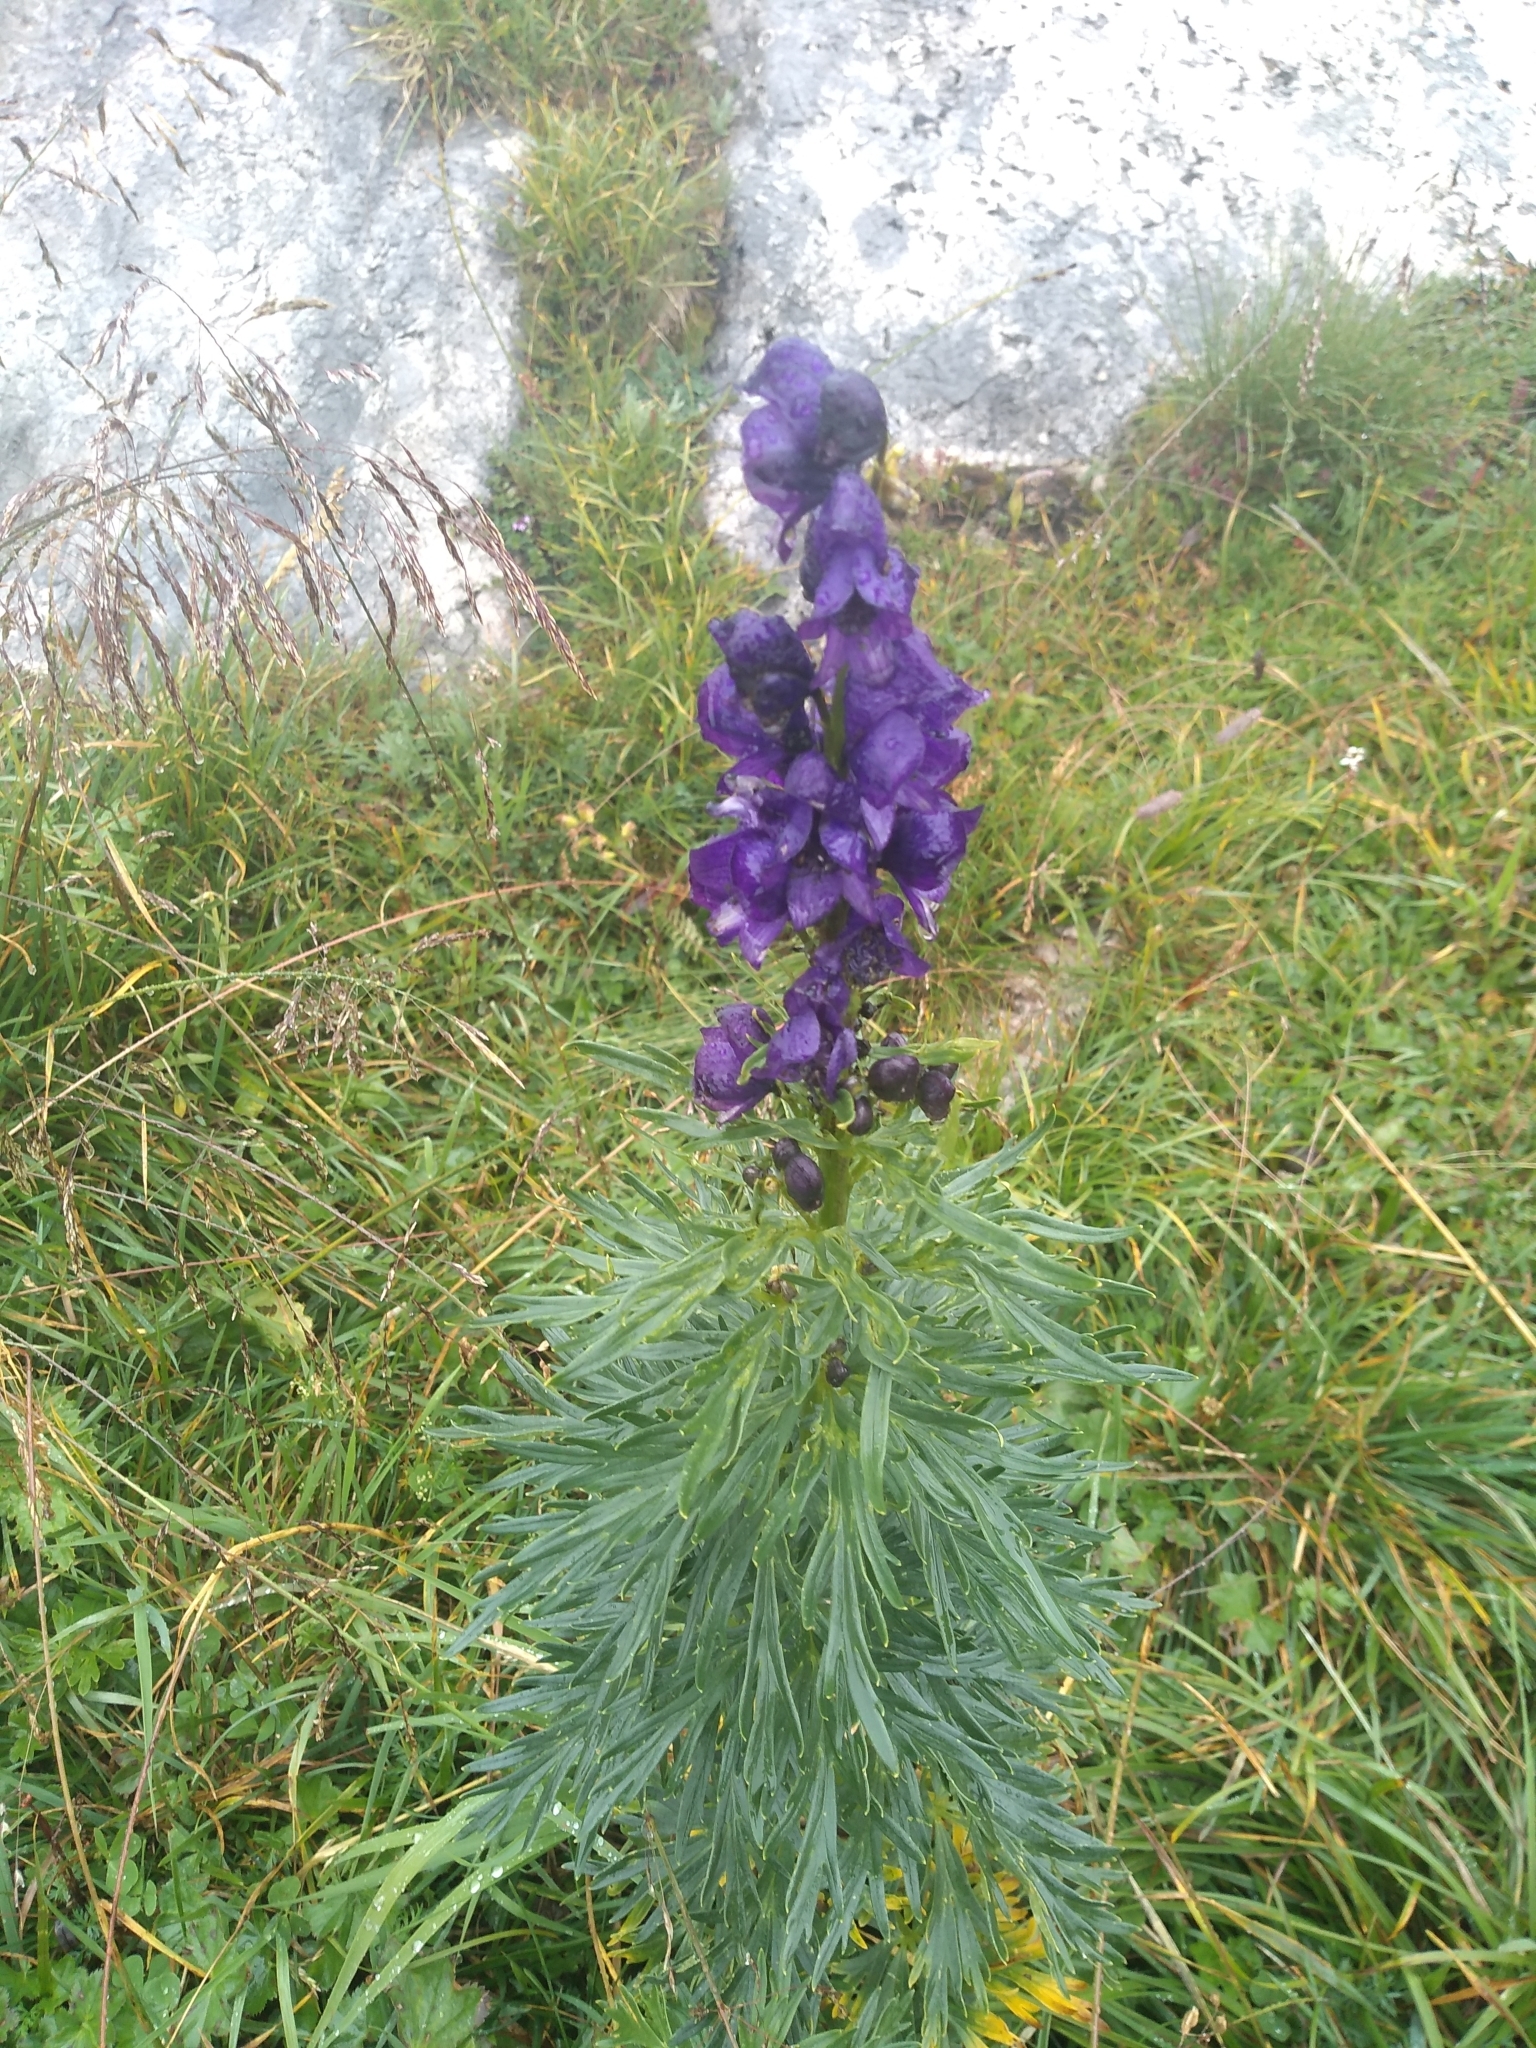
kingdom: Plantae
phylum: Tracheophyta
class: Magnoliopsida
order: Ranunculales
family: Ranunculaceae
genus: Aconitum
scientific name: Aconitum tauricum
